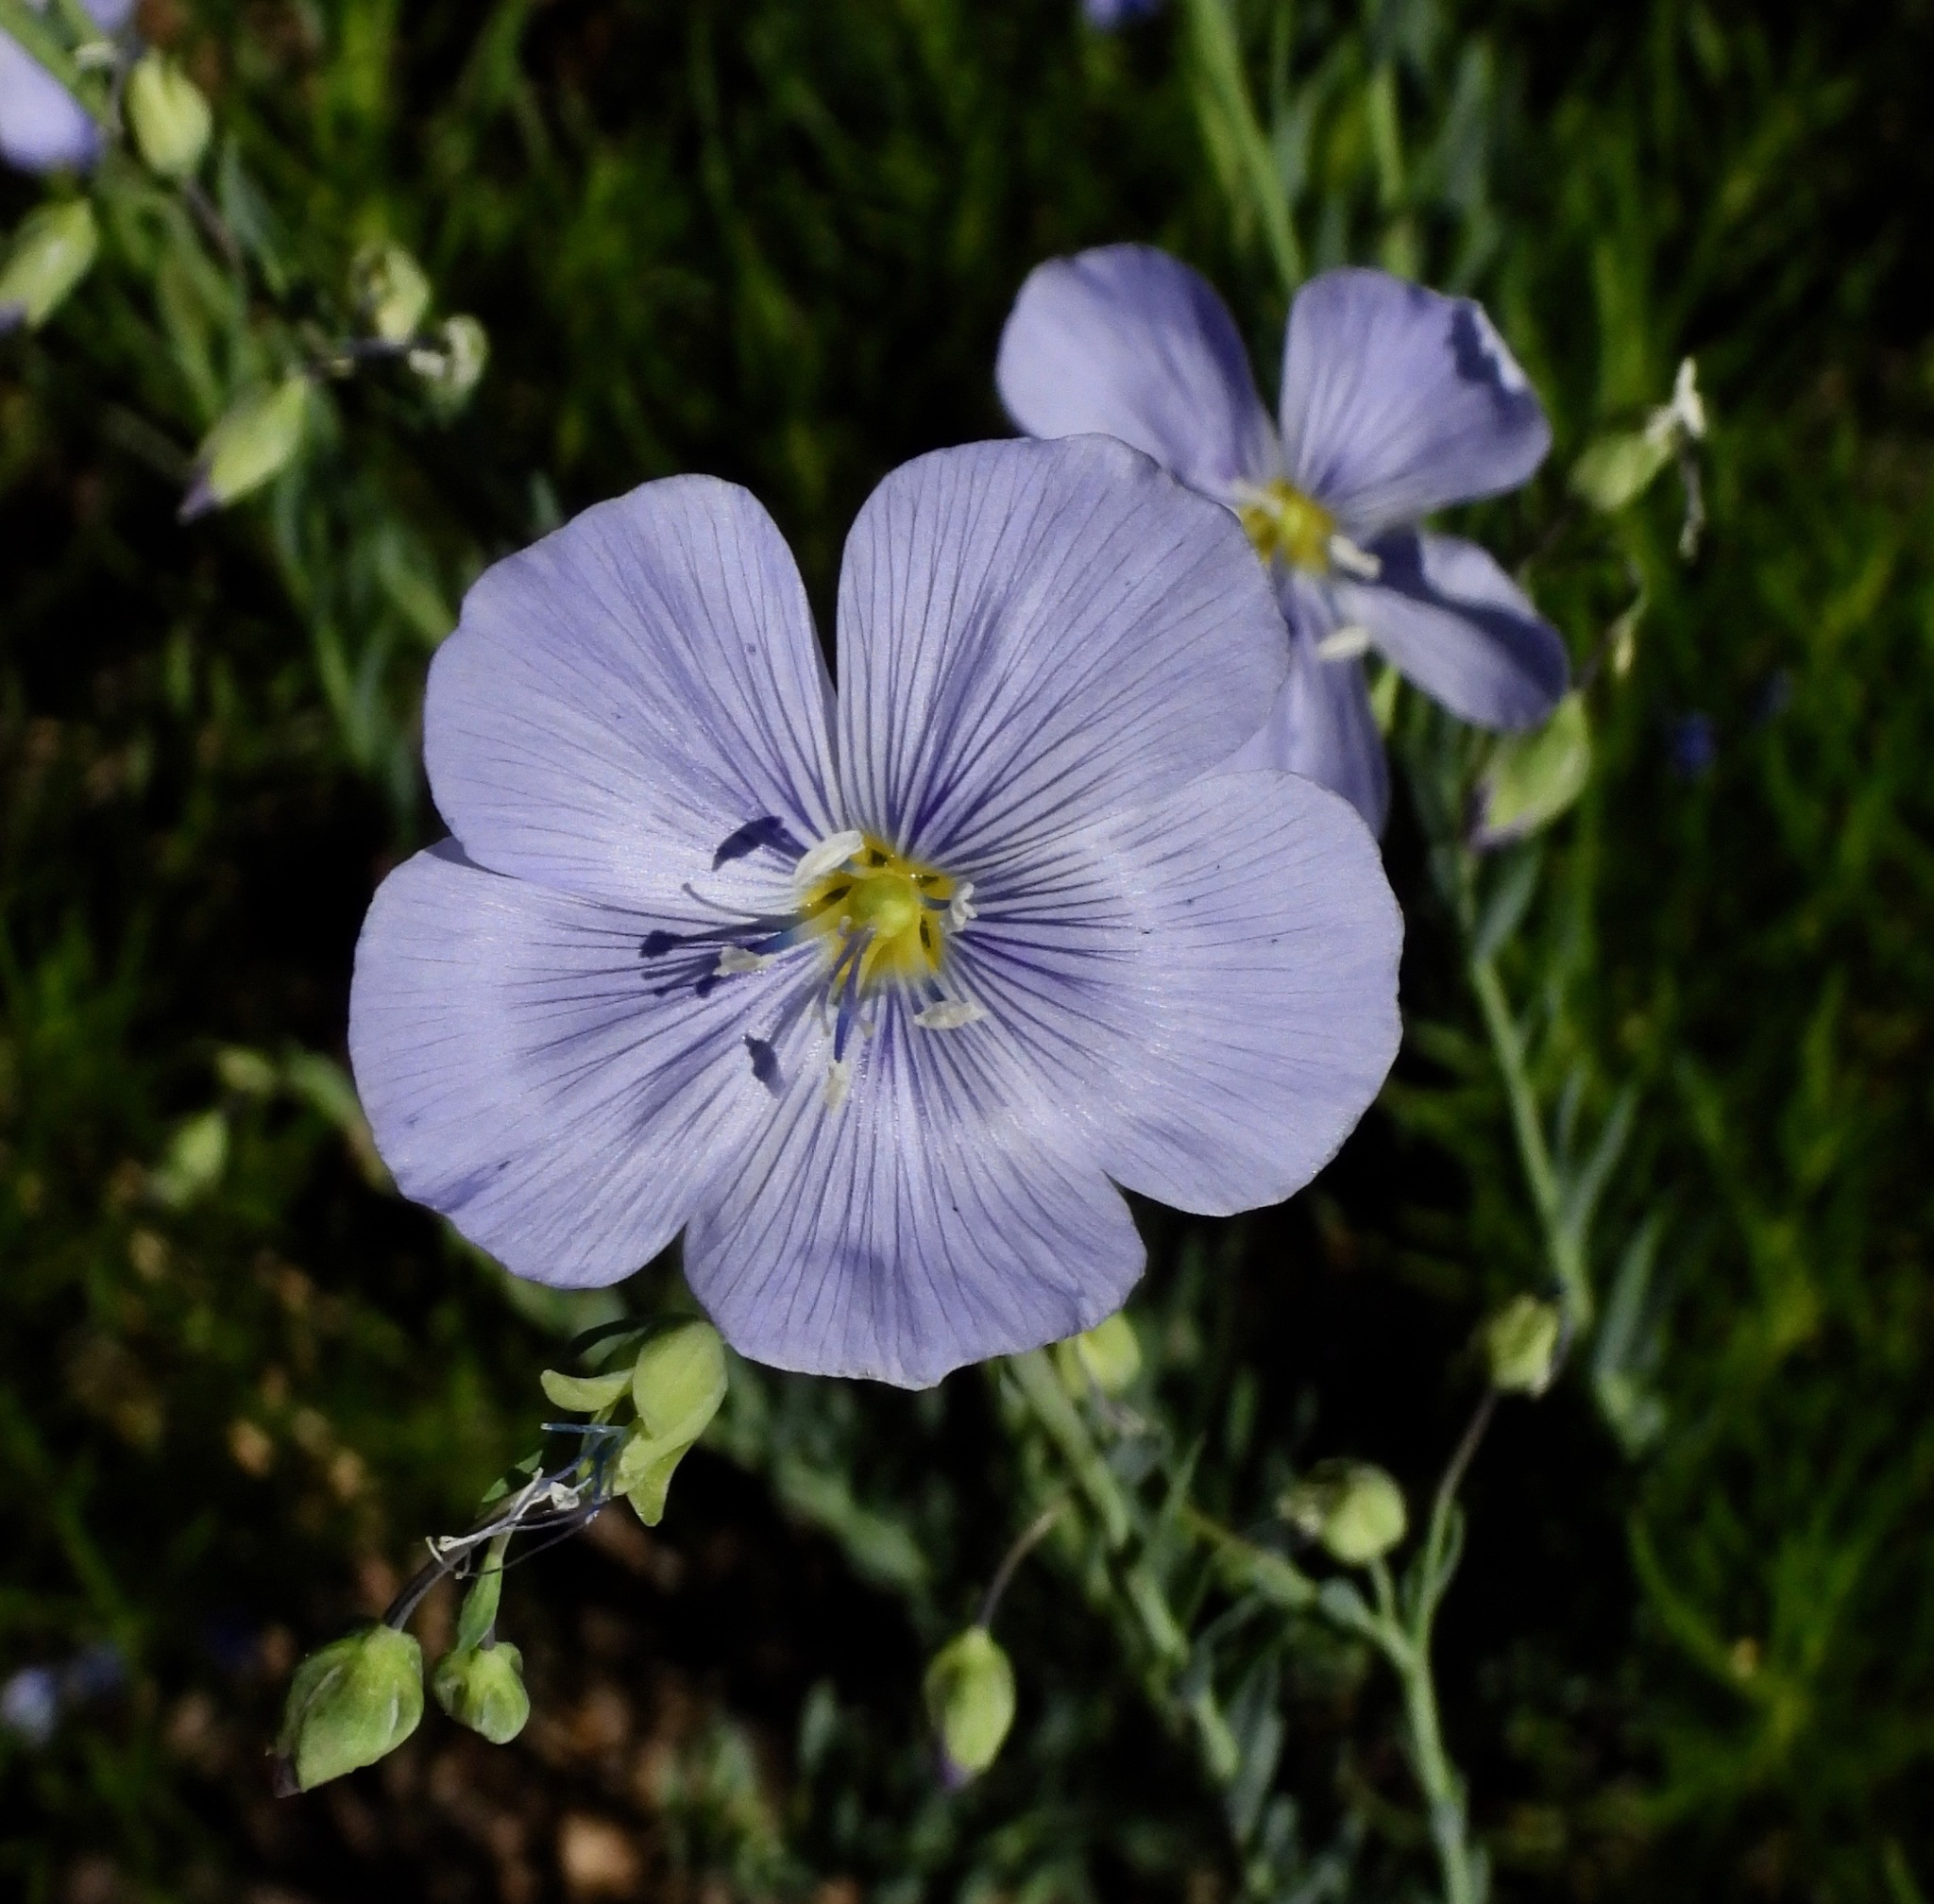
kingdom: Plantae
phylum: Tracheophyta
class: Magnoliopsida
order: Malpighiales
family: Linaceae
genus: Linum
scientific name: Linum lewisii
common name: Prairie flax
